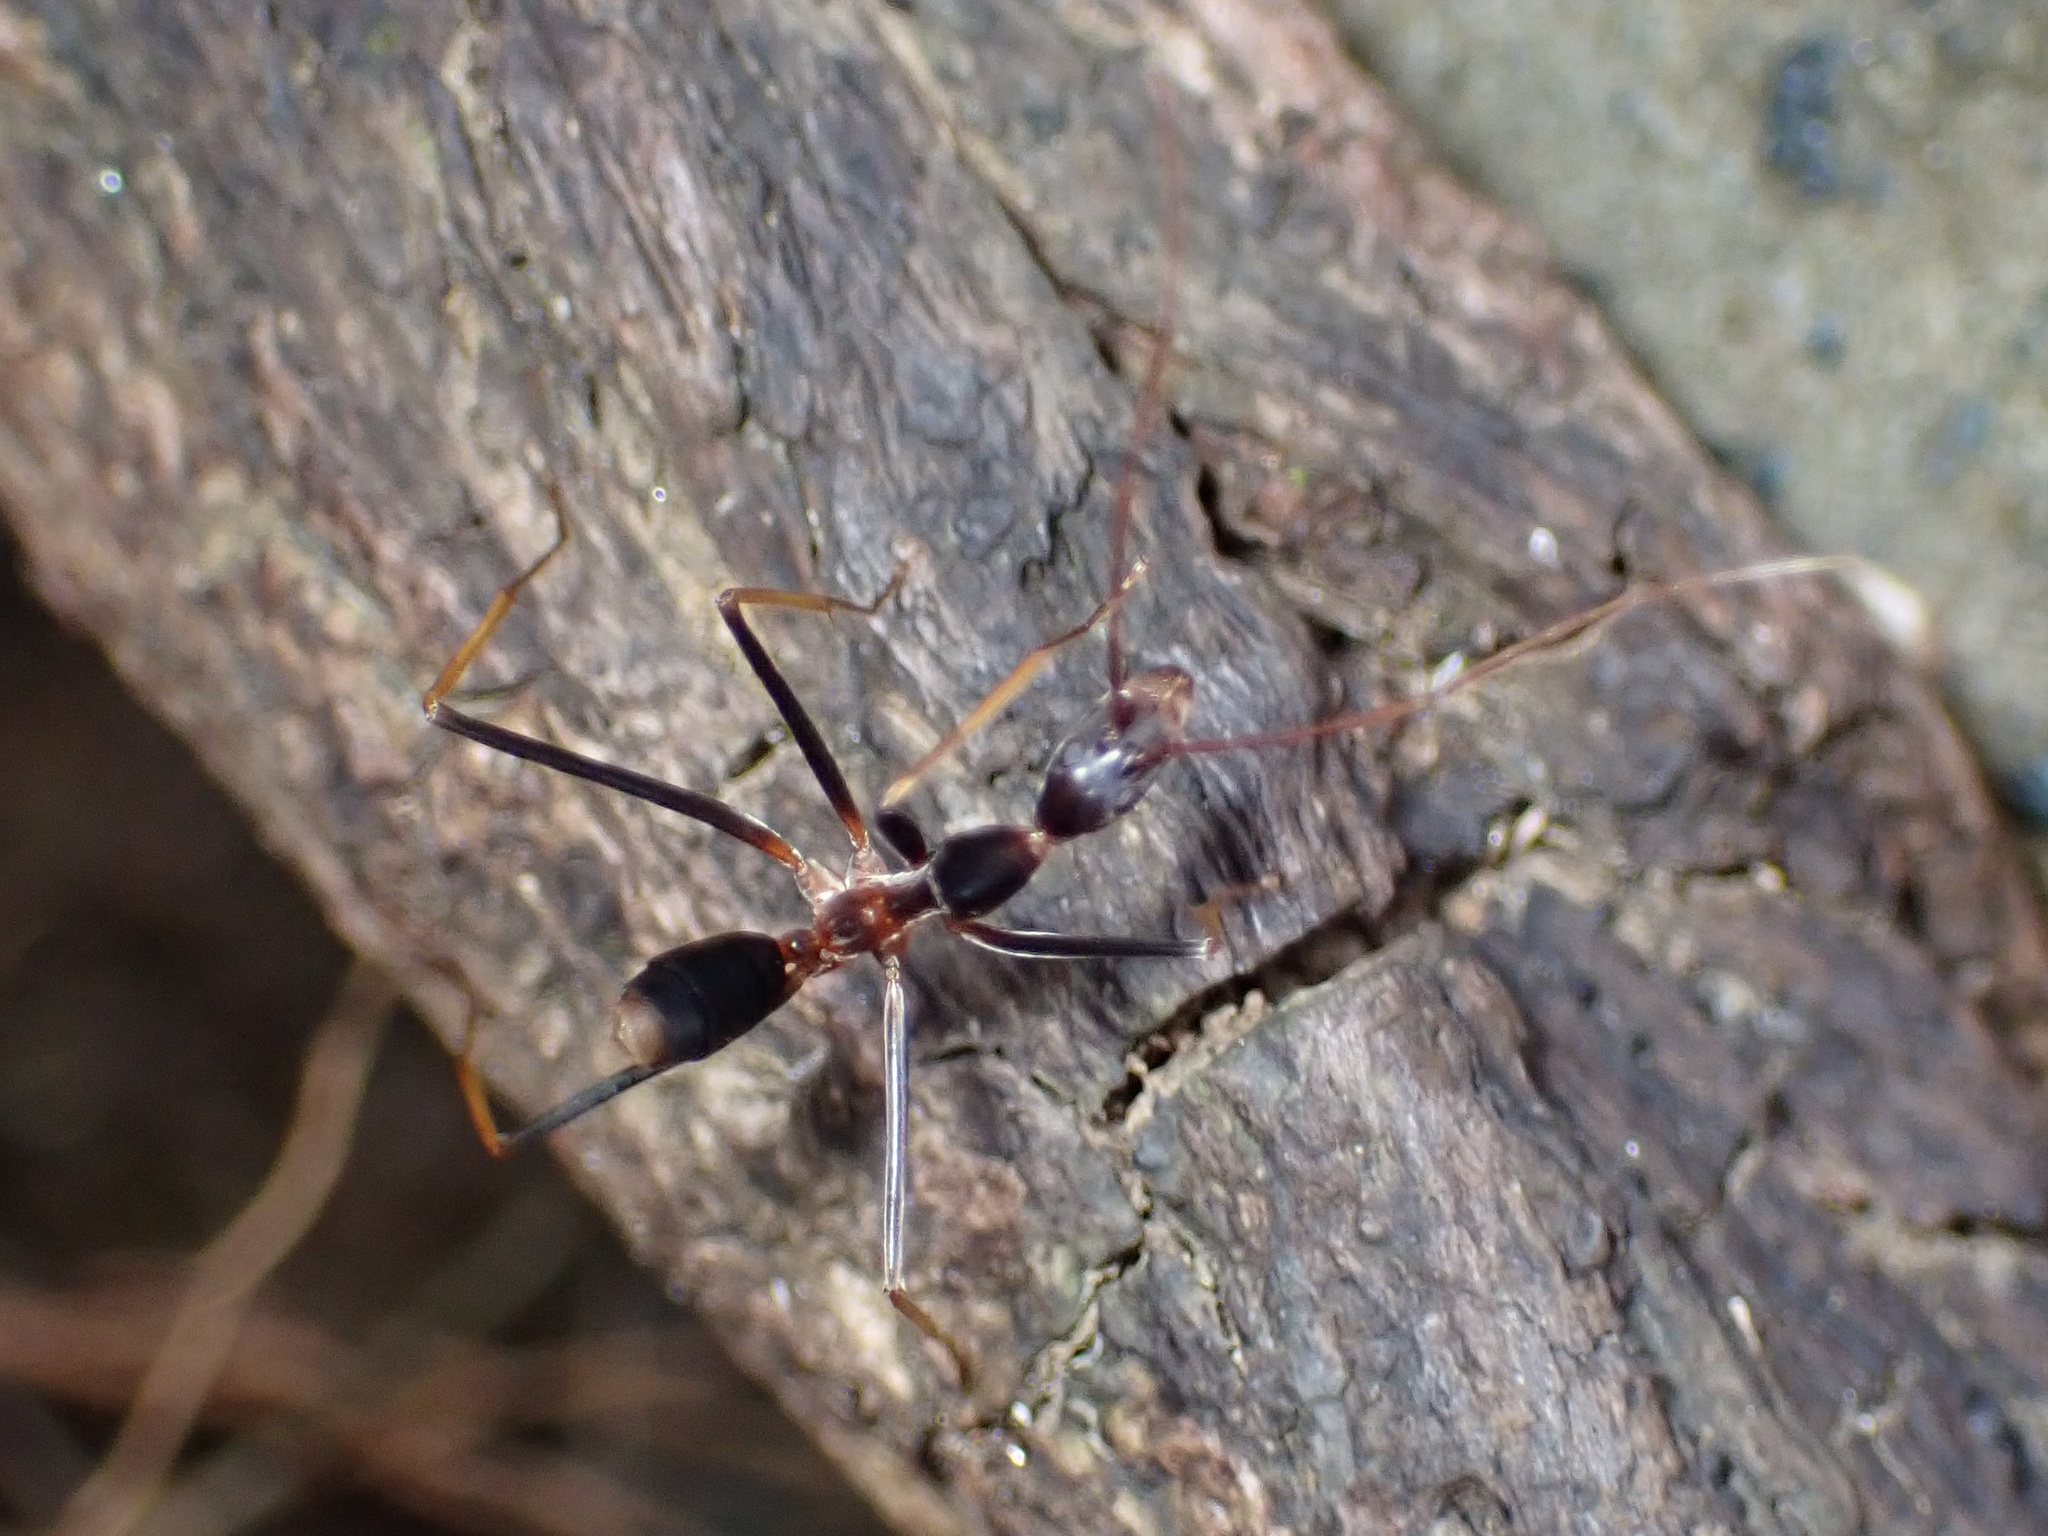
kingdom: Animalia
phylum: Arthropoda
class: Insecta
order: Hymenoptera
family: Formicidae
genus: Leptomyrmex
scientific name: Leptomyrmex rothneyi
